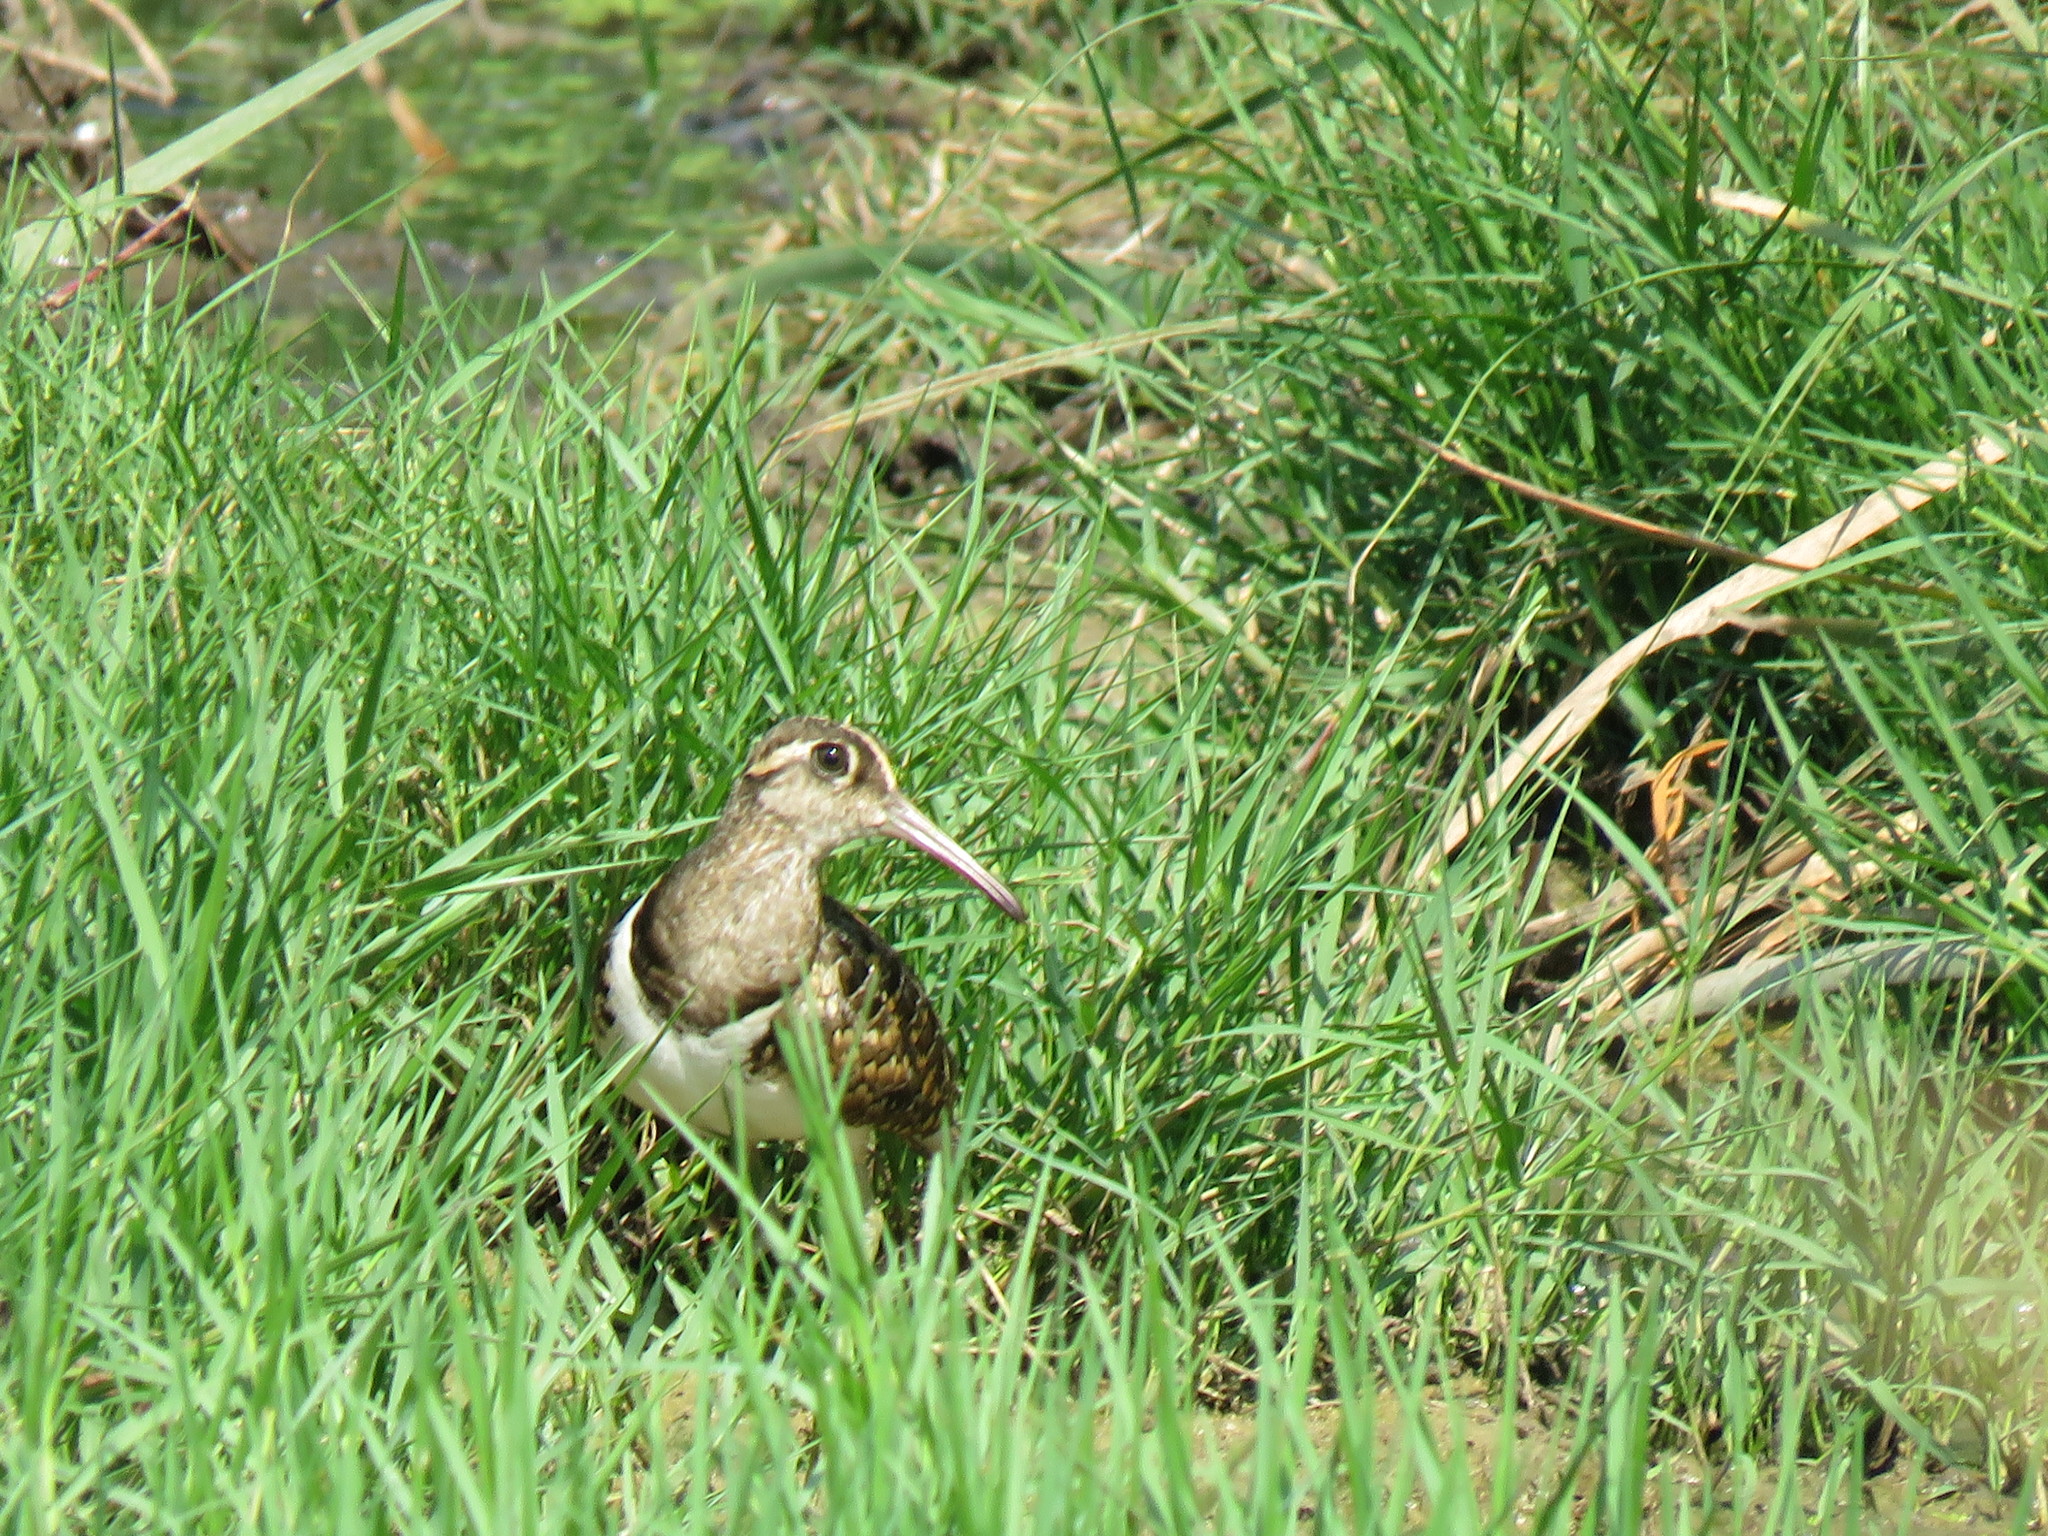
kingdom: Animalia
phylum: Chordata
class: Aves
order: Charadriiformes
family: Rostratulidae
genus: Rostratula
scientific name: Rostratula benghalensis
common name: Greater painted-snipe
